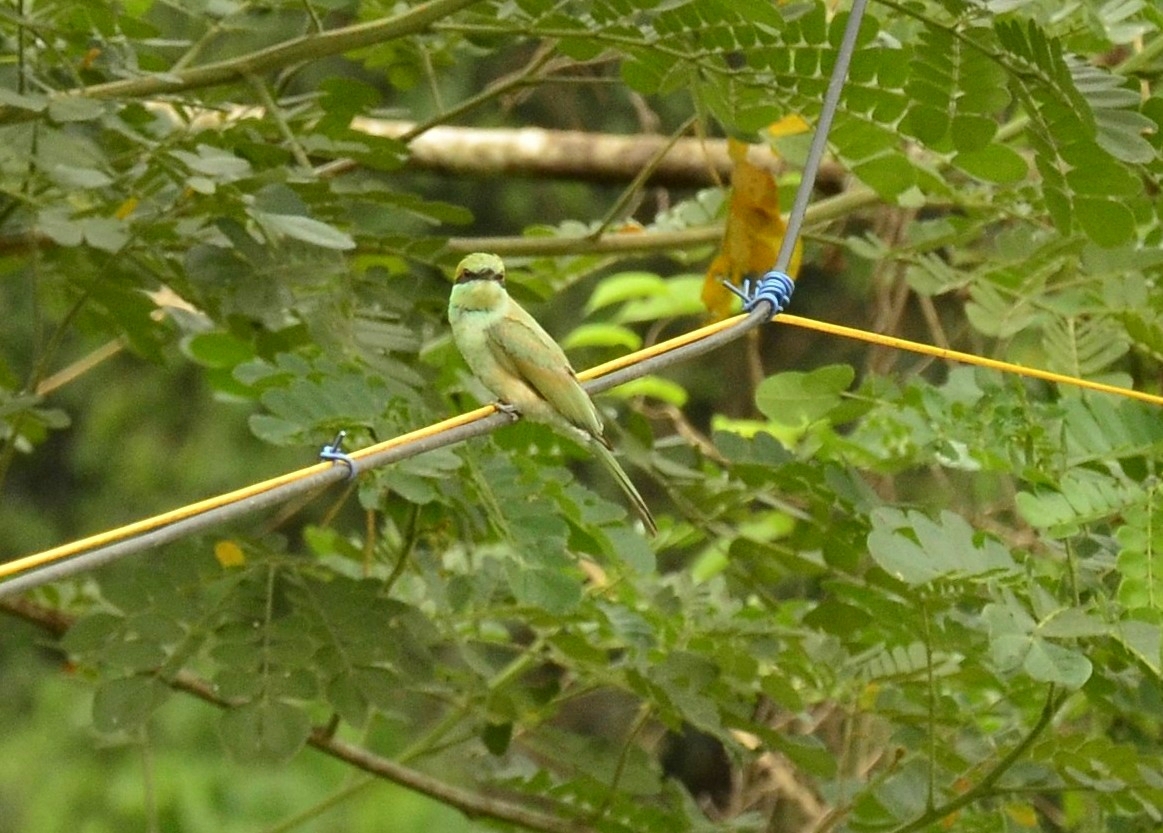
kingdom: Animalia
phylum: Chordata
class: Aves
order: Coraciiformes
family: Meropidae
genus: Merops
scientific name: Merops orientalis
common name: Green bee-eater
